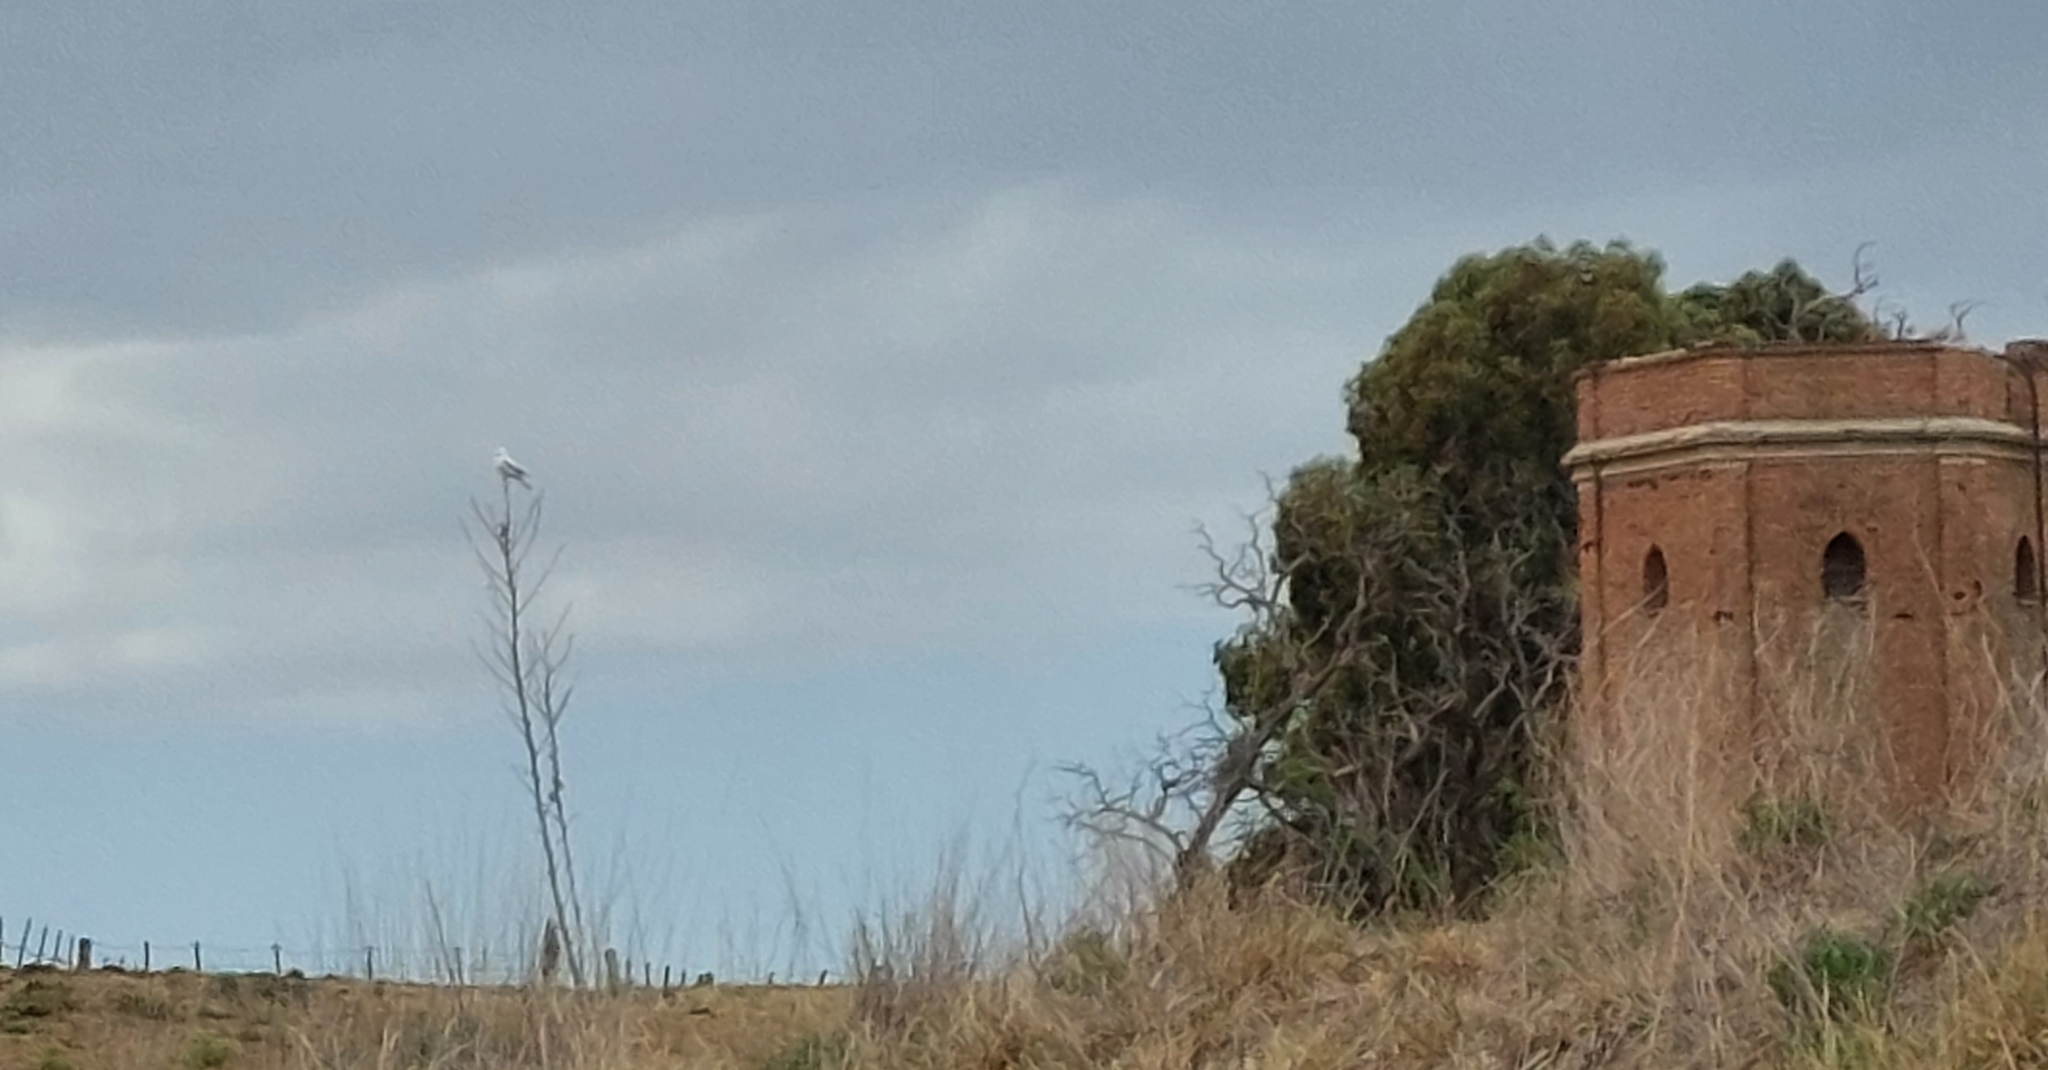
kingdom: Animalia
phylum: Chordata
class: Aves
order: Passeriformes
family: Tyrannidae
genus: Xolmis
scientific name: Xolmis irupero
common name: White monjita
